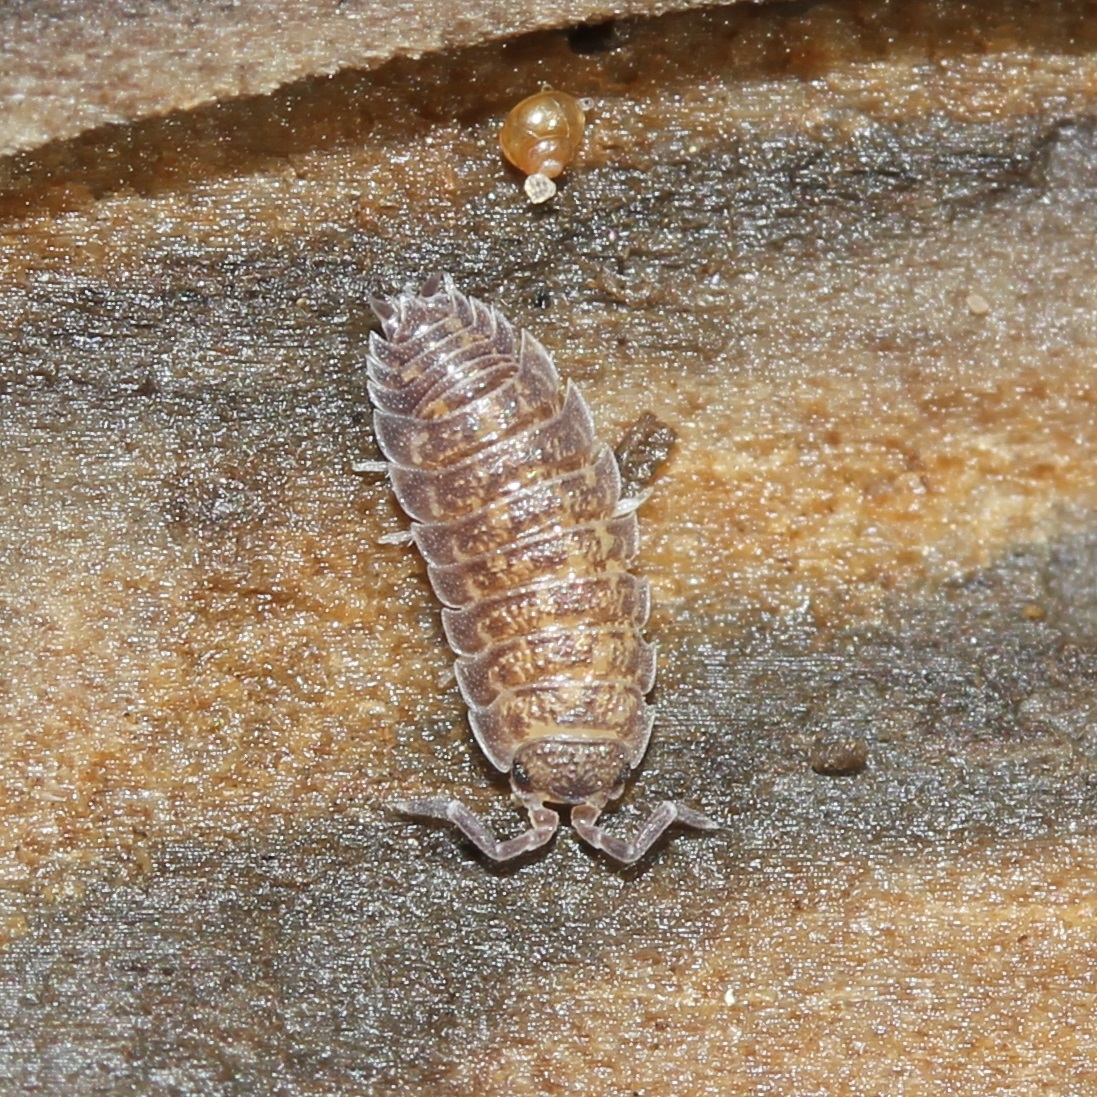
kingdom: Animalia
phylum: Arthropoda
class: Malacostraca
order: Isopoda
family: Porcellionidae
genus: Porcellio
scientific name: Porcellio scaber
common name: Common rough woodlouse
